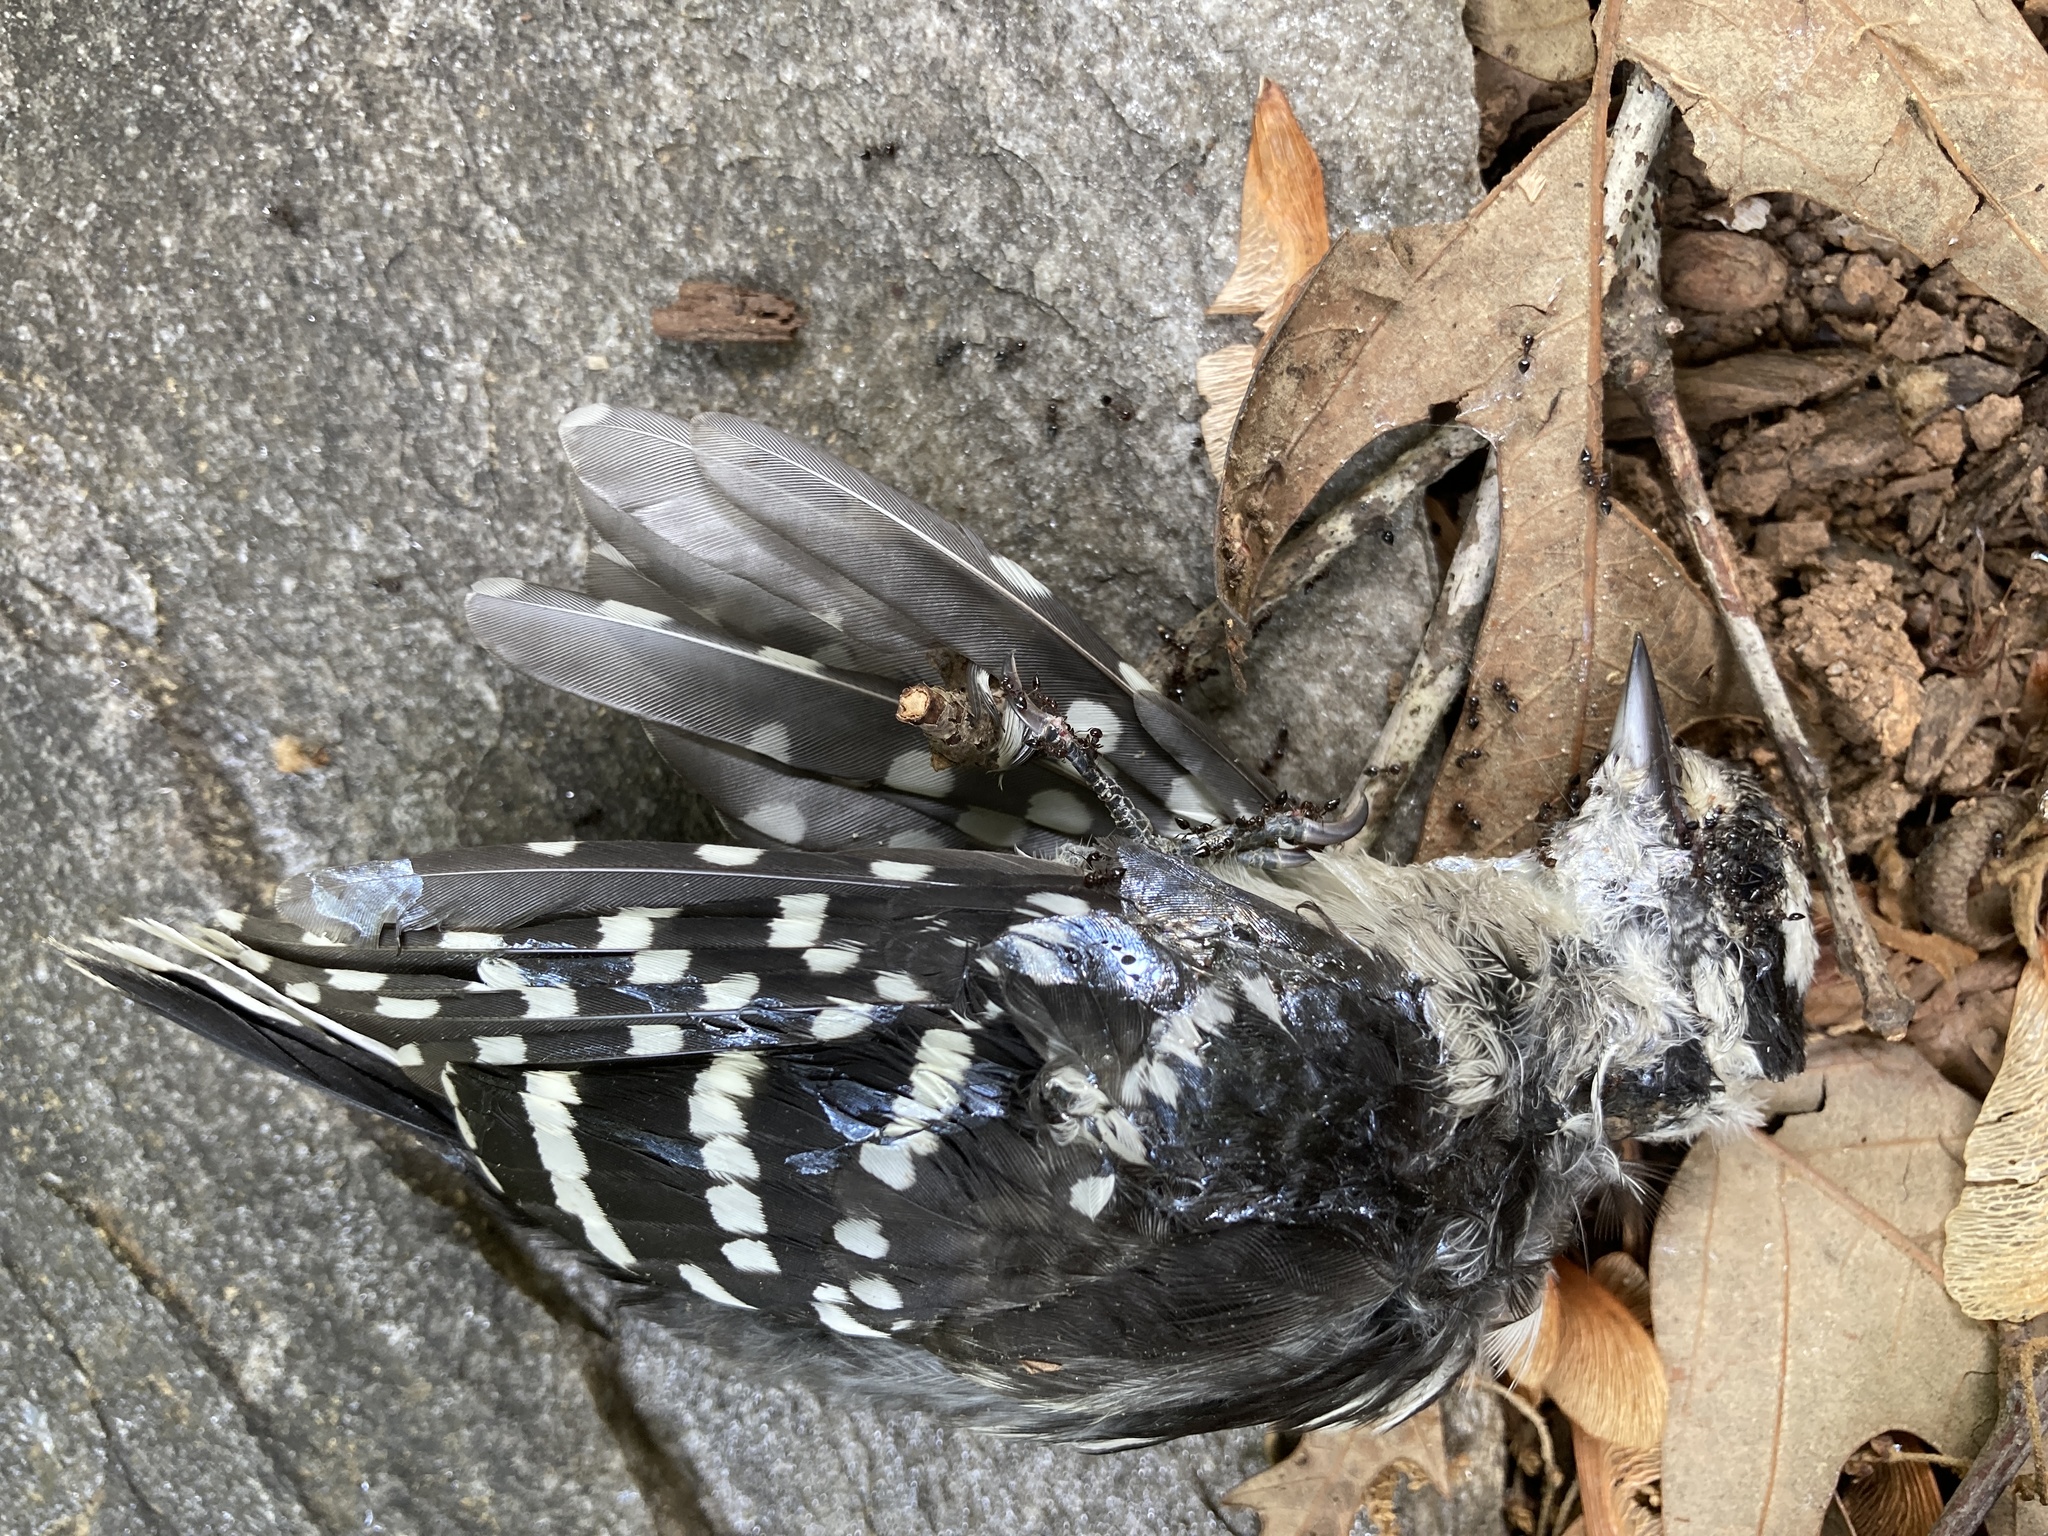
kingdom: Animalia
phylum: Chordata
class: Aves
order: Piciformes
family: Picidae
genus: Dryobates
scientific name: Dryobates pubescens
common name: Downy woodpecker
